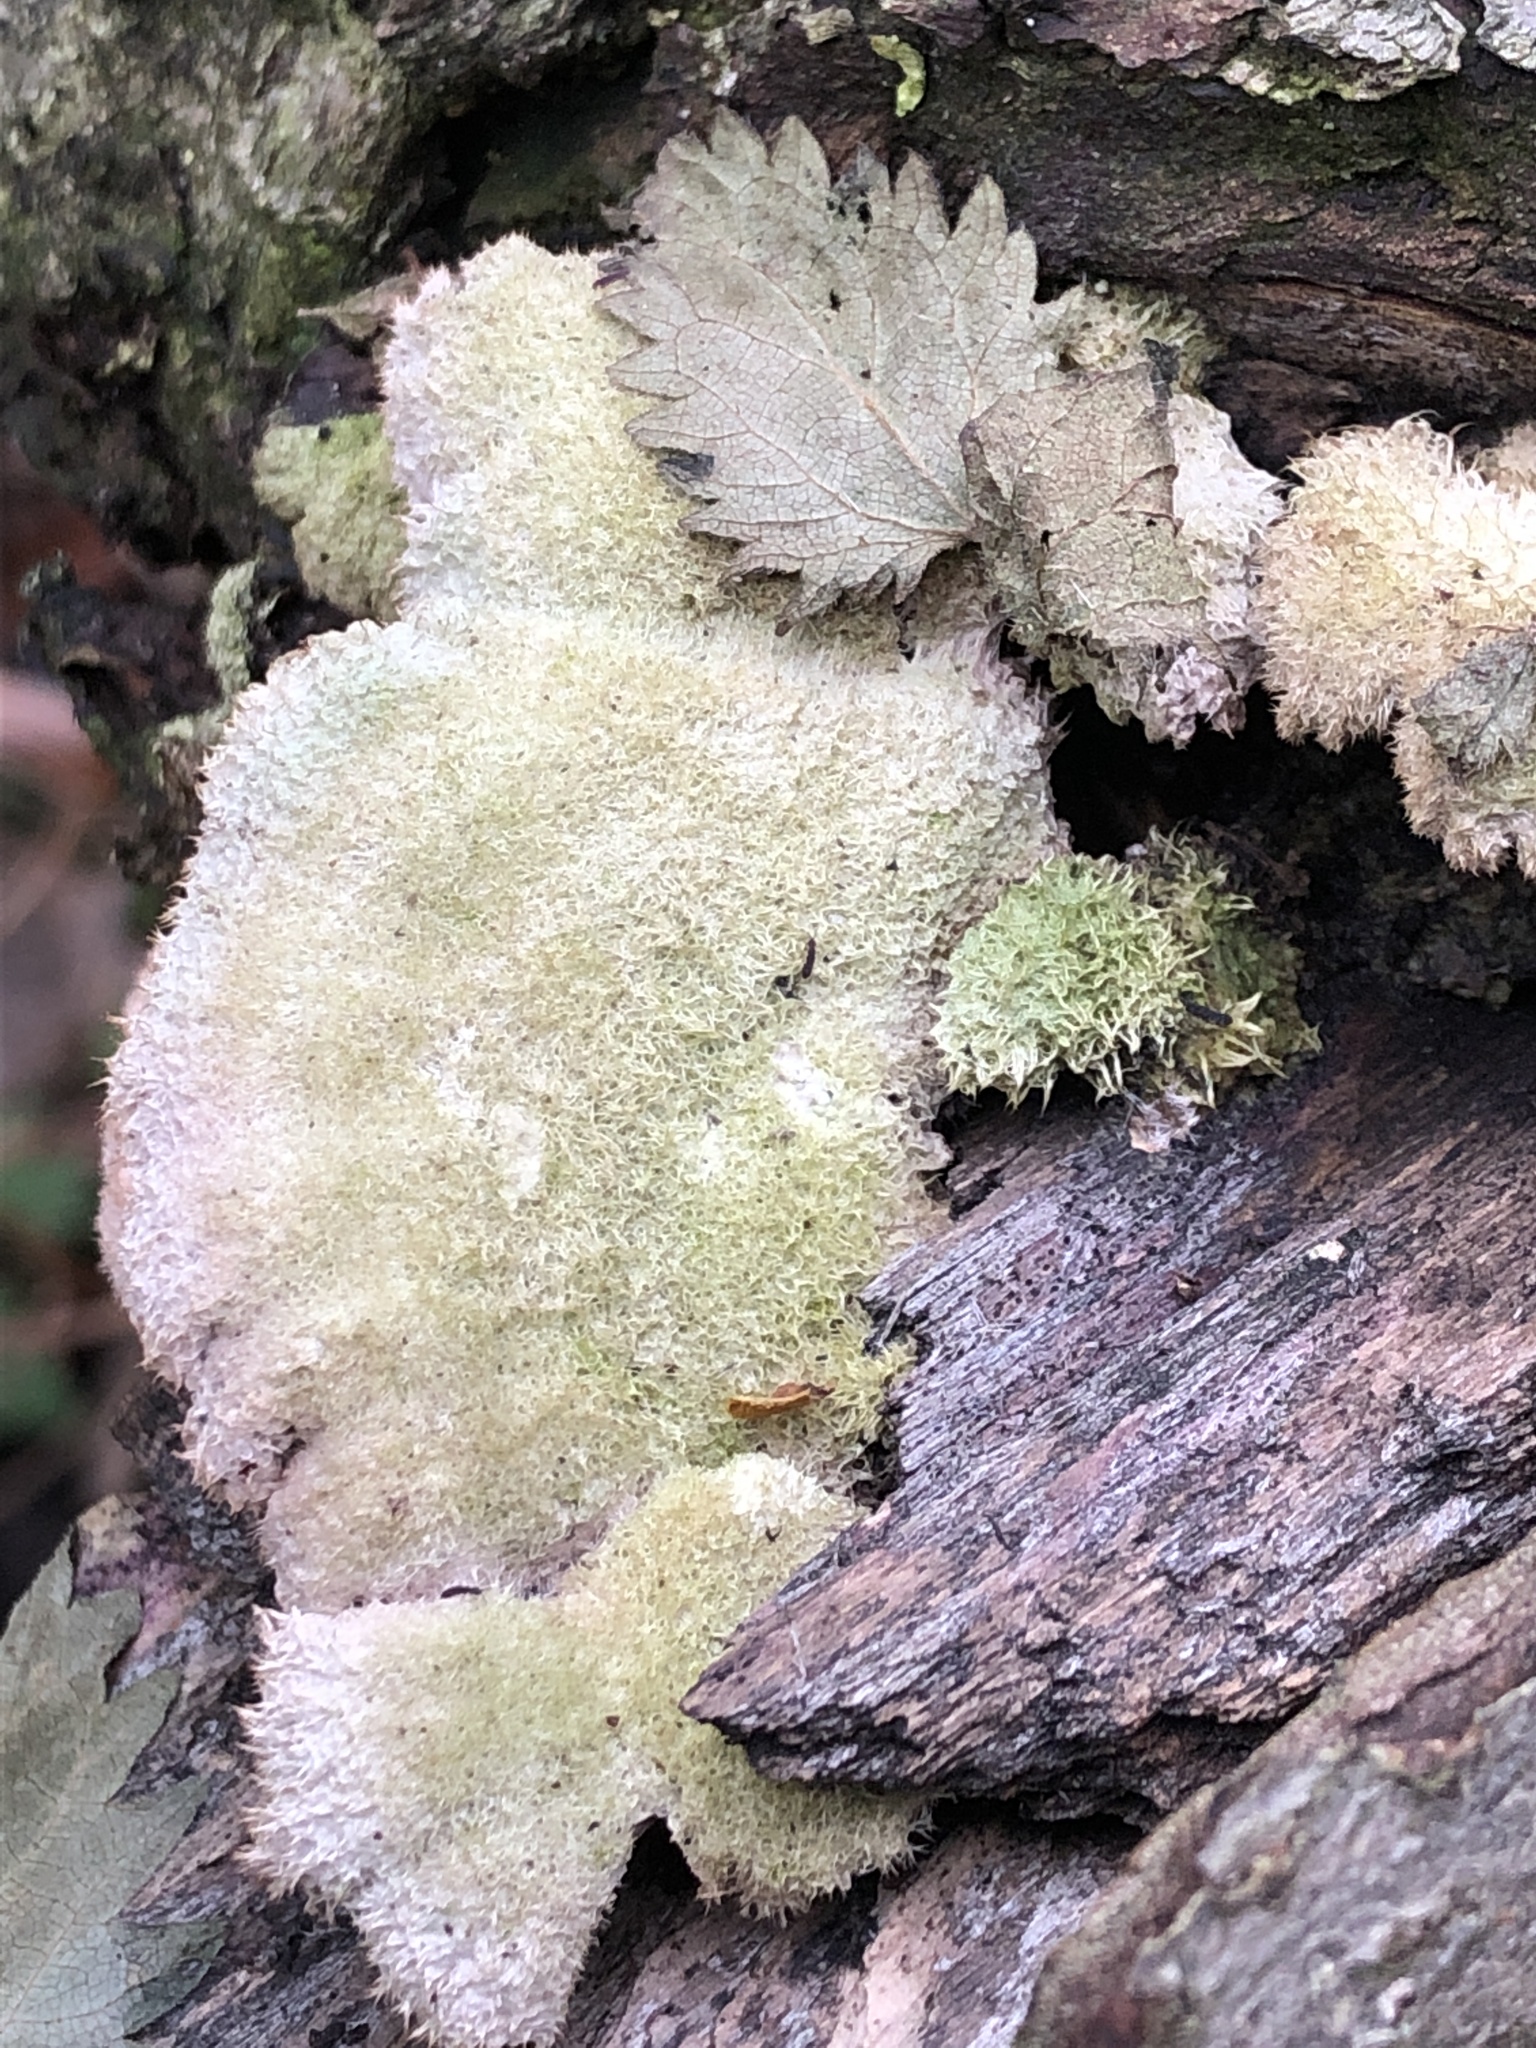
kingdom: Fungi
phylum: Basidiomycota
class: Agaricomycetes
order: Agaricales
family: Schizophyllaceae
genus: Schizophyllum
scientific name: Schizophyllum commune
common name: Common porecrust
